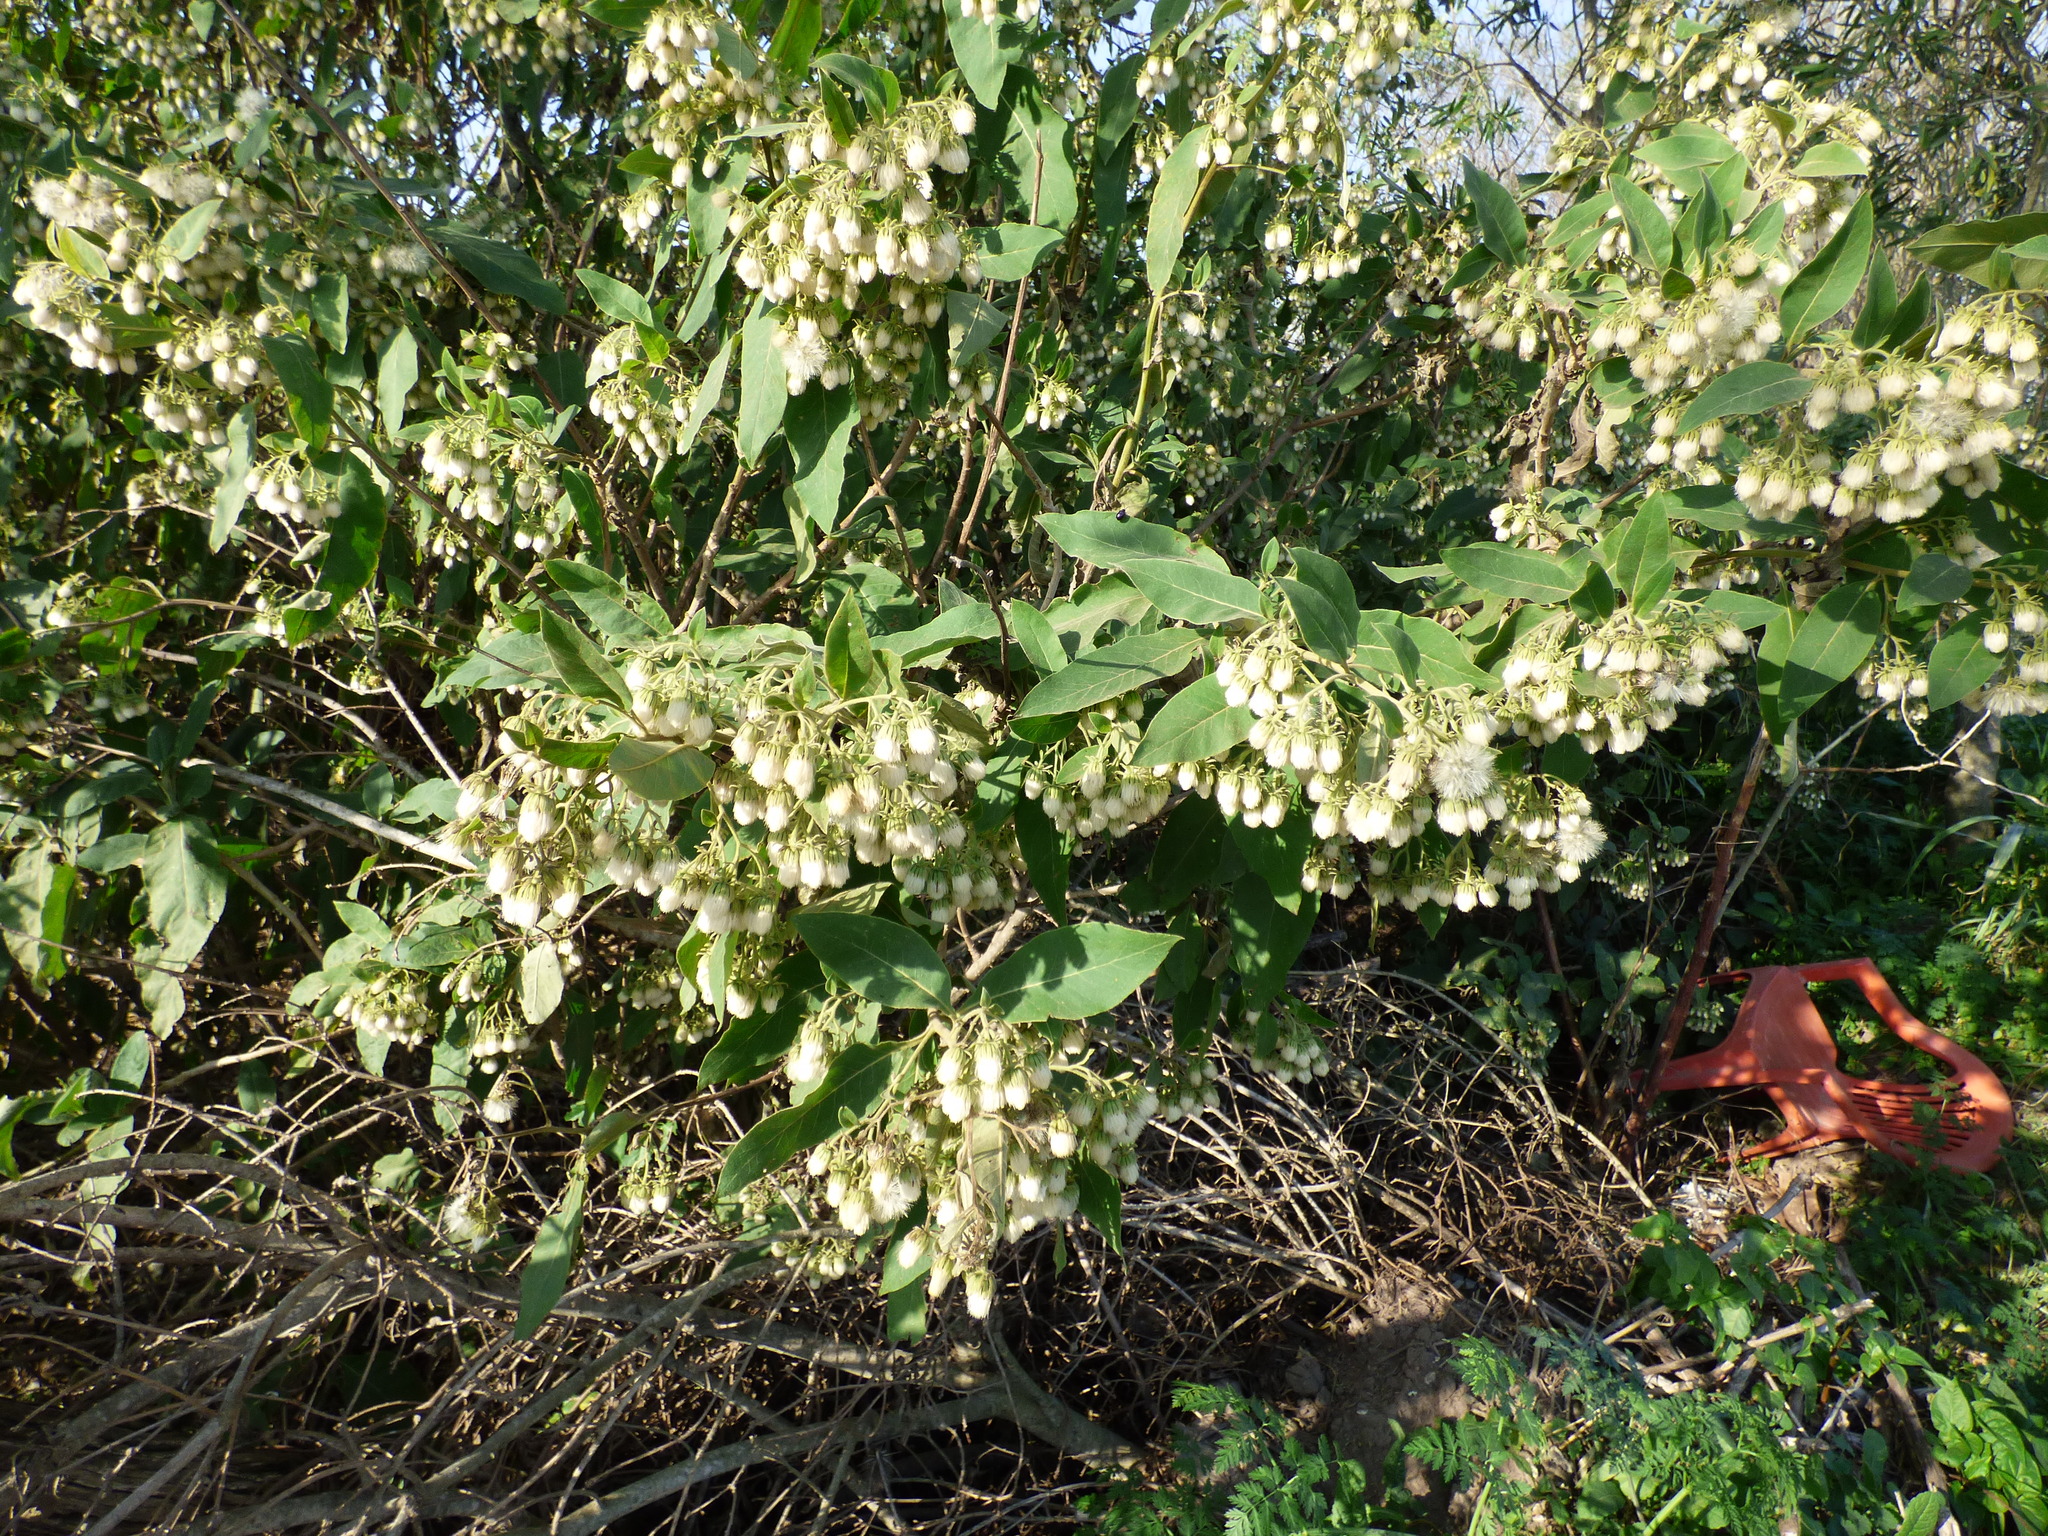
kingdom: Plantae
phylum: Tracheophyta
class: Magnoliopsida
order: Asterales
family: Asteraceae
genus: Trixis
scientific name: Trixis praestans
